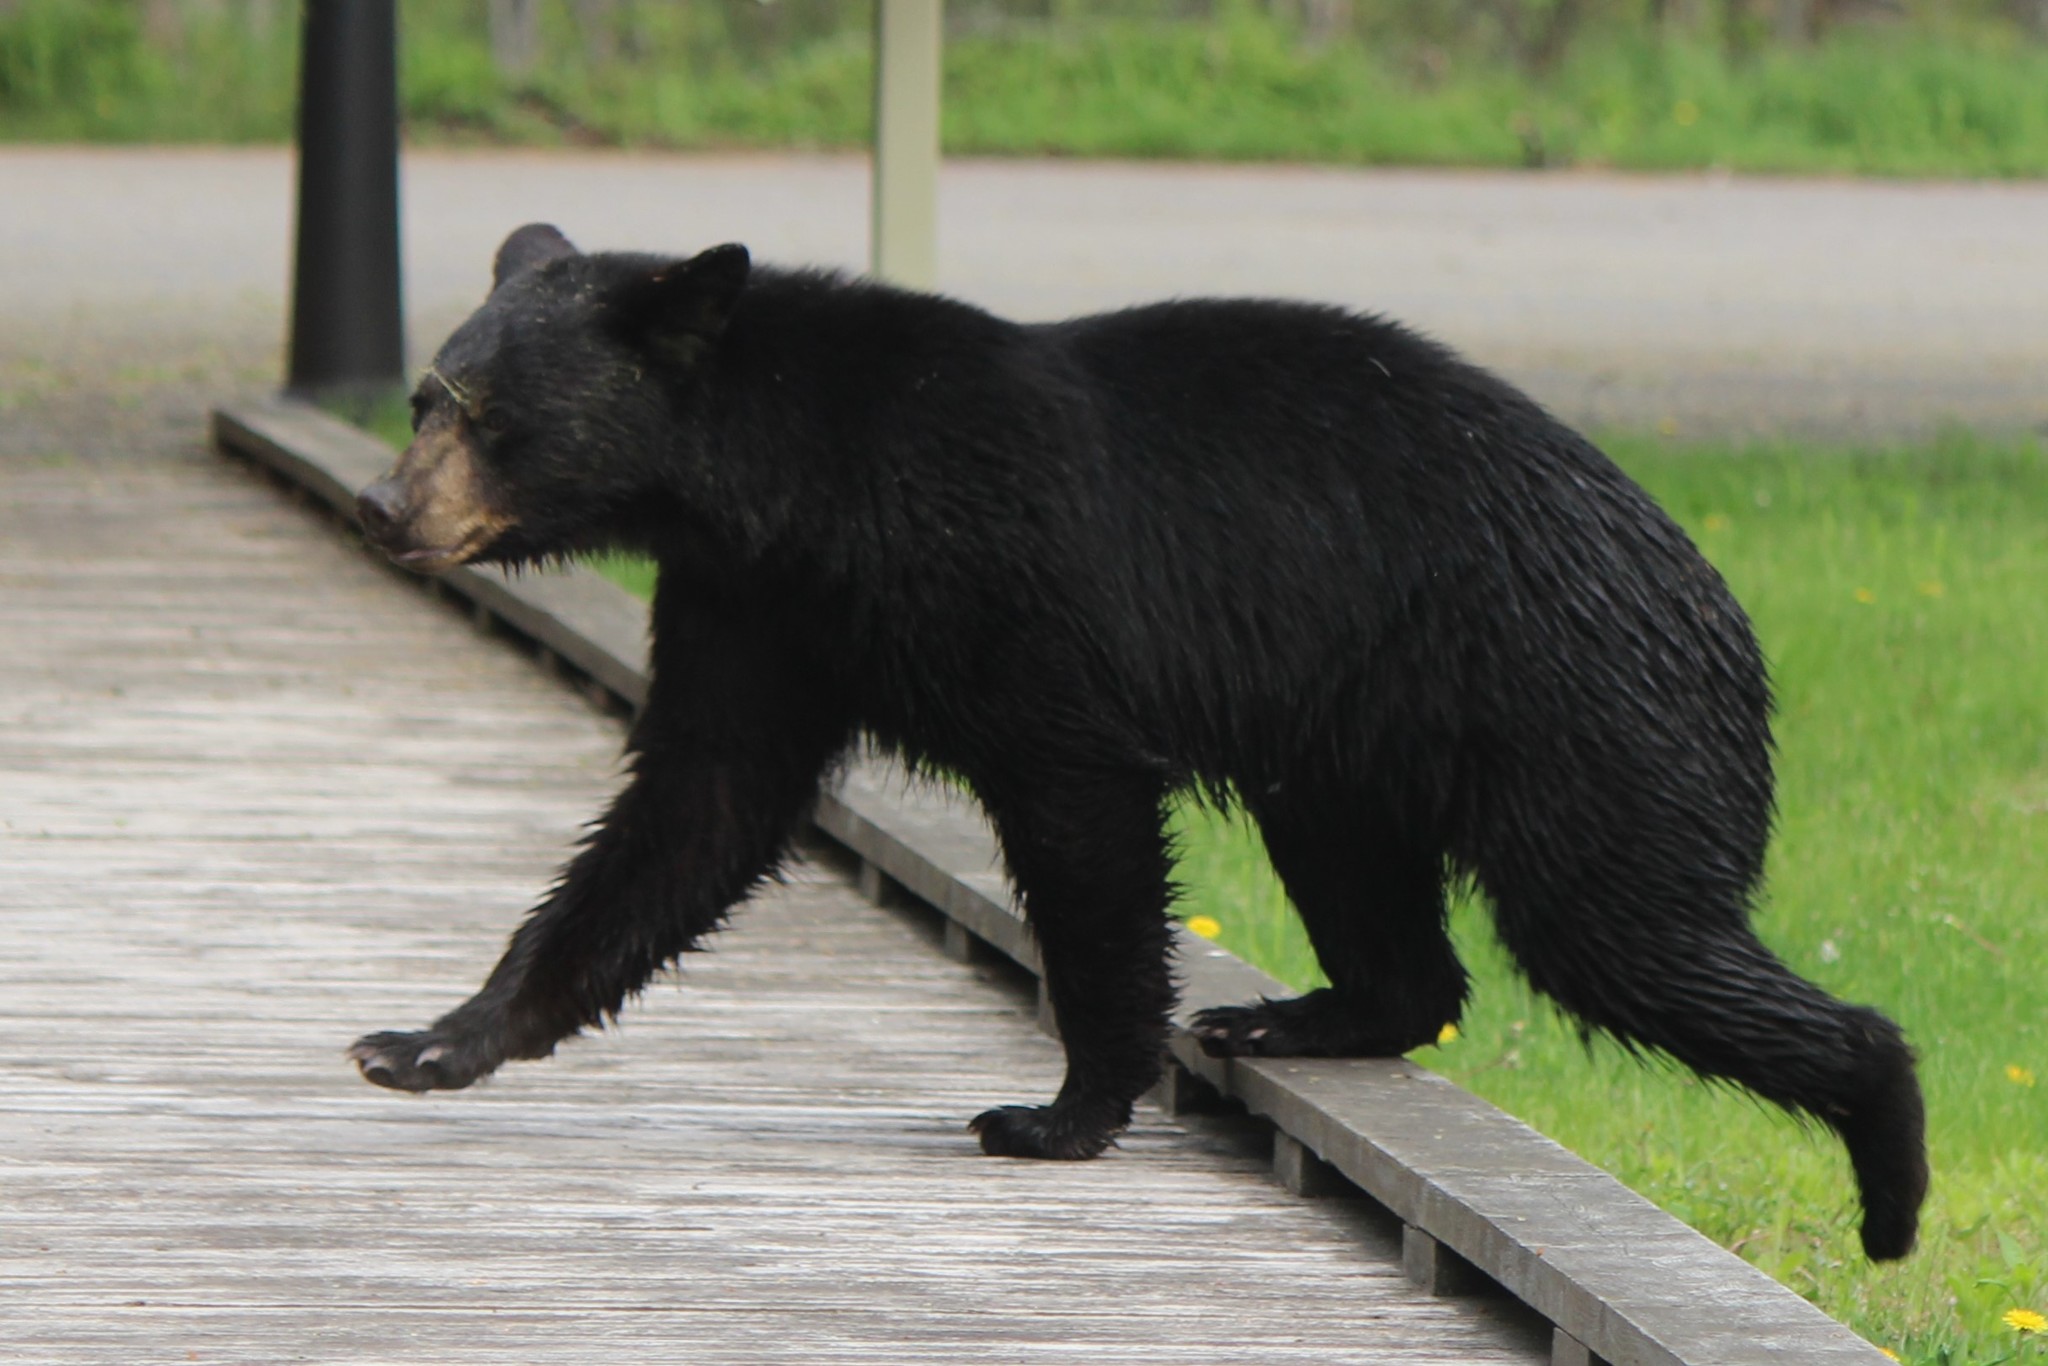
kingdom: Animalia
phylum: Chordata
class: Mammalia
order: Carnivora
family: Ursidae
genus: Ursus
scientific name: Ursus americanus
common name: American black bear
